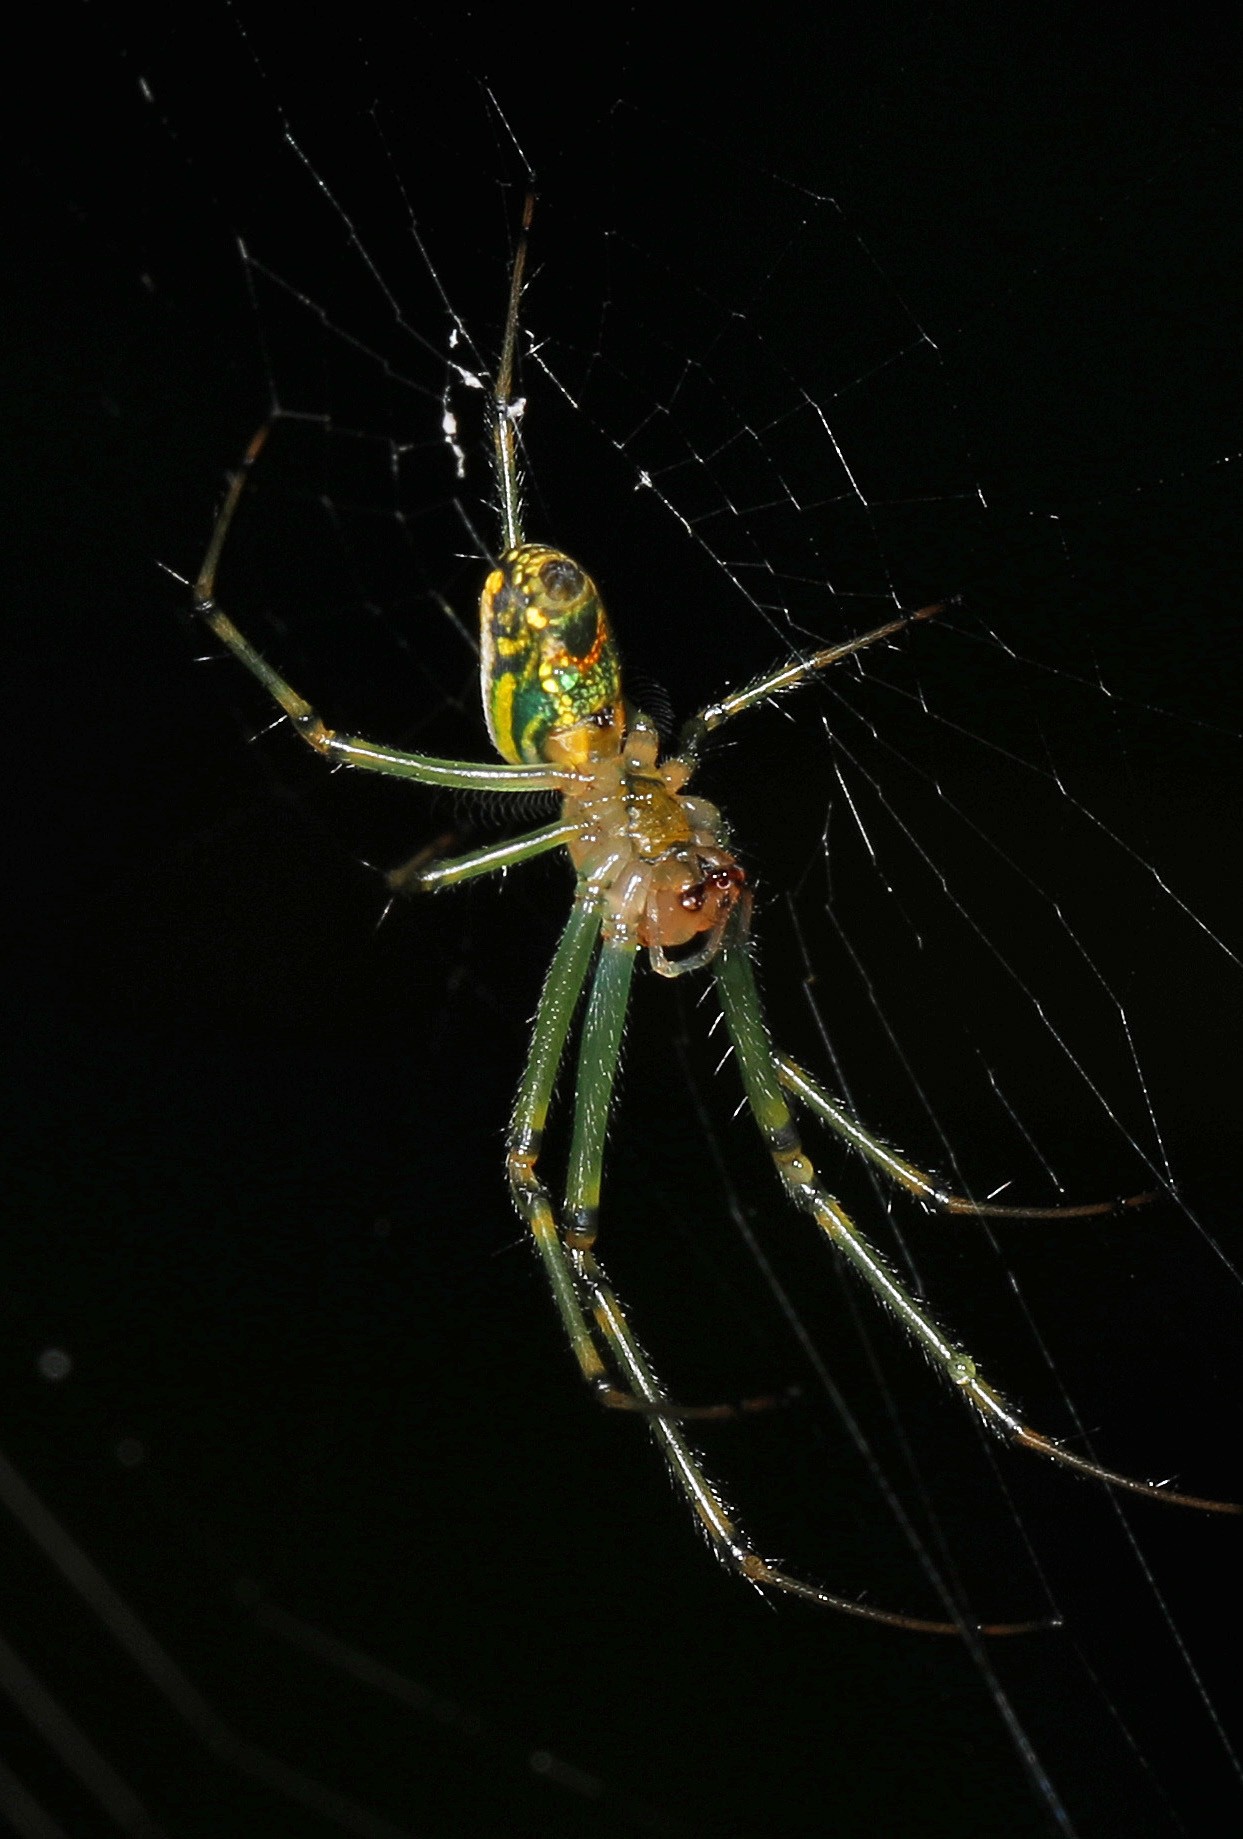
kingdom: Animalia
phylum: Arthropoda
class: Arachnida
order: Araneae
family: Tetragnathidae
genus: Leucauge
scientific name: Leucauge venusta
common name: Longjawed orb weavers
